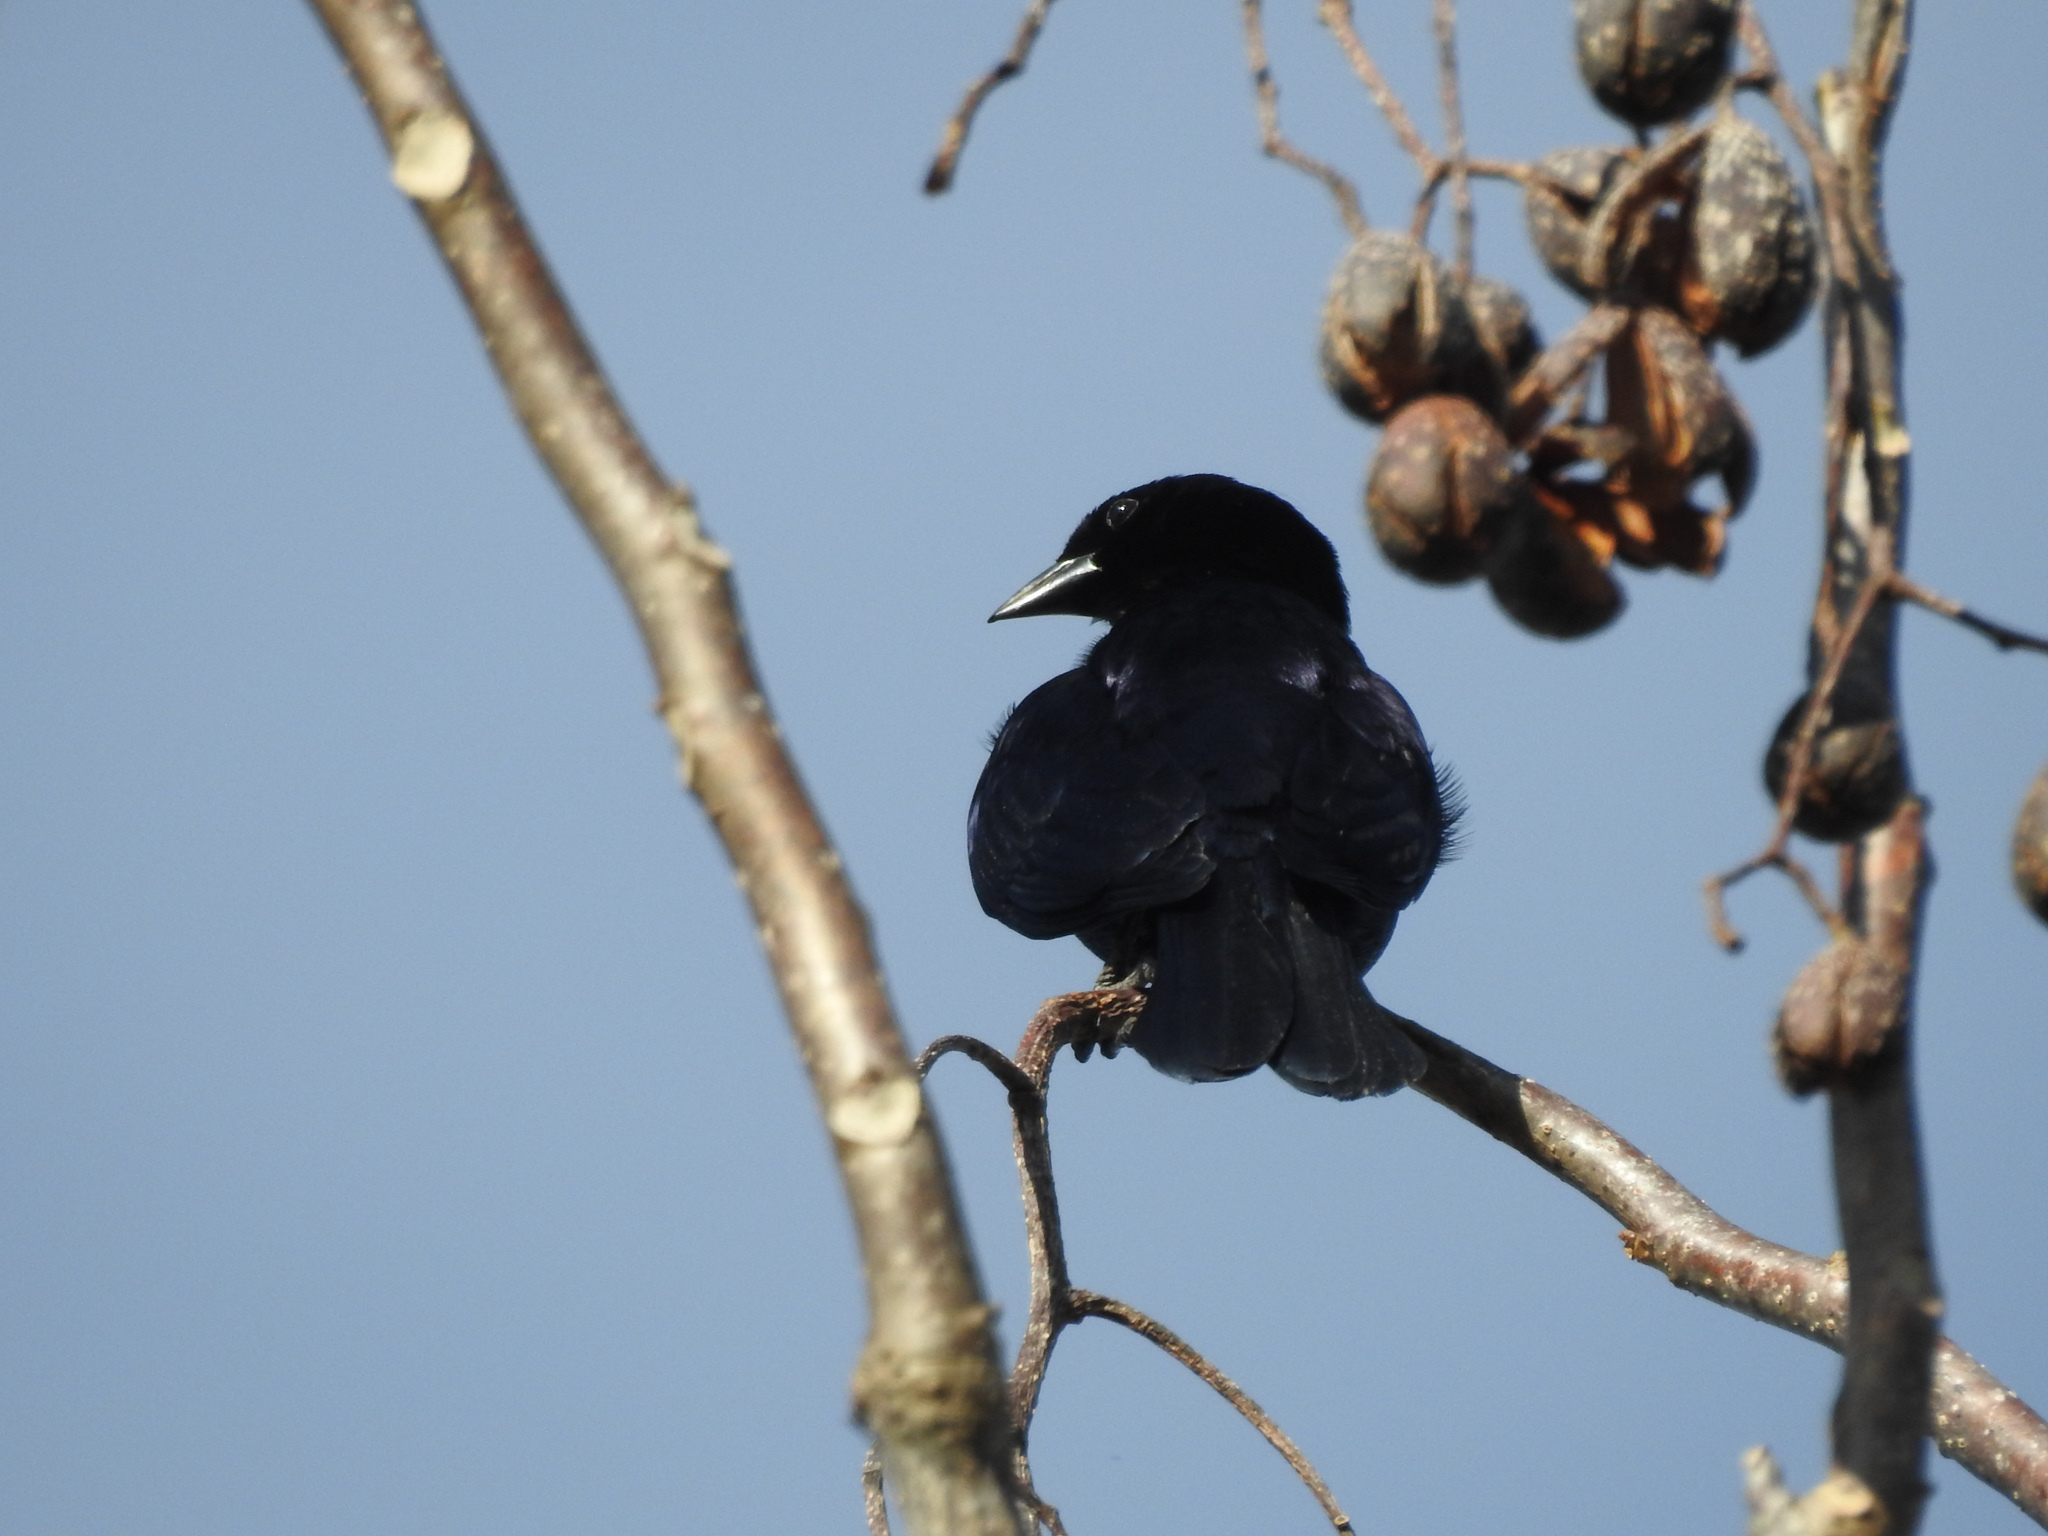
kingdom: Animalia
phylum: Chordata
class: Aves
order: Passeriformes
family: Icteridae
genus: Dives
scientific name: Dives dives
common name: Melodious blackbird
